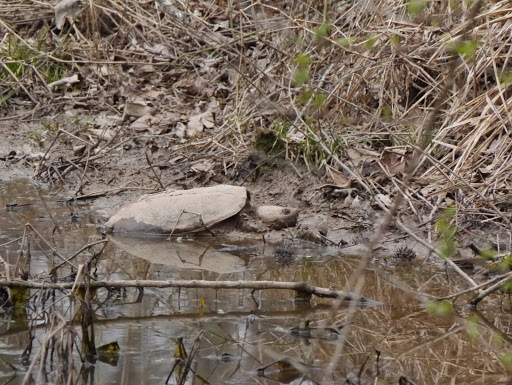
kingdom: Animalia
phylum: Chordata
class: Testudines
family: Chelydridae
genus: Chelydra
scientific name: Chelydra serpentina
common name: Common snapping turtle
